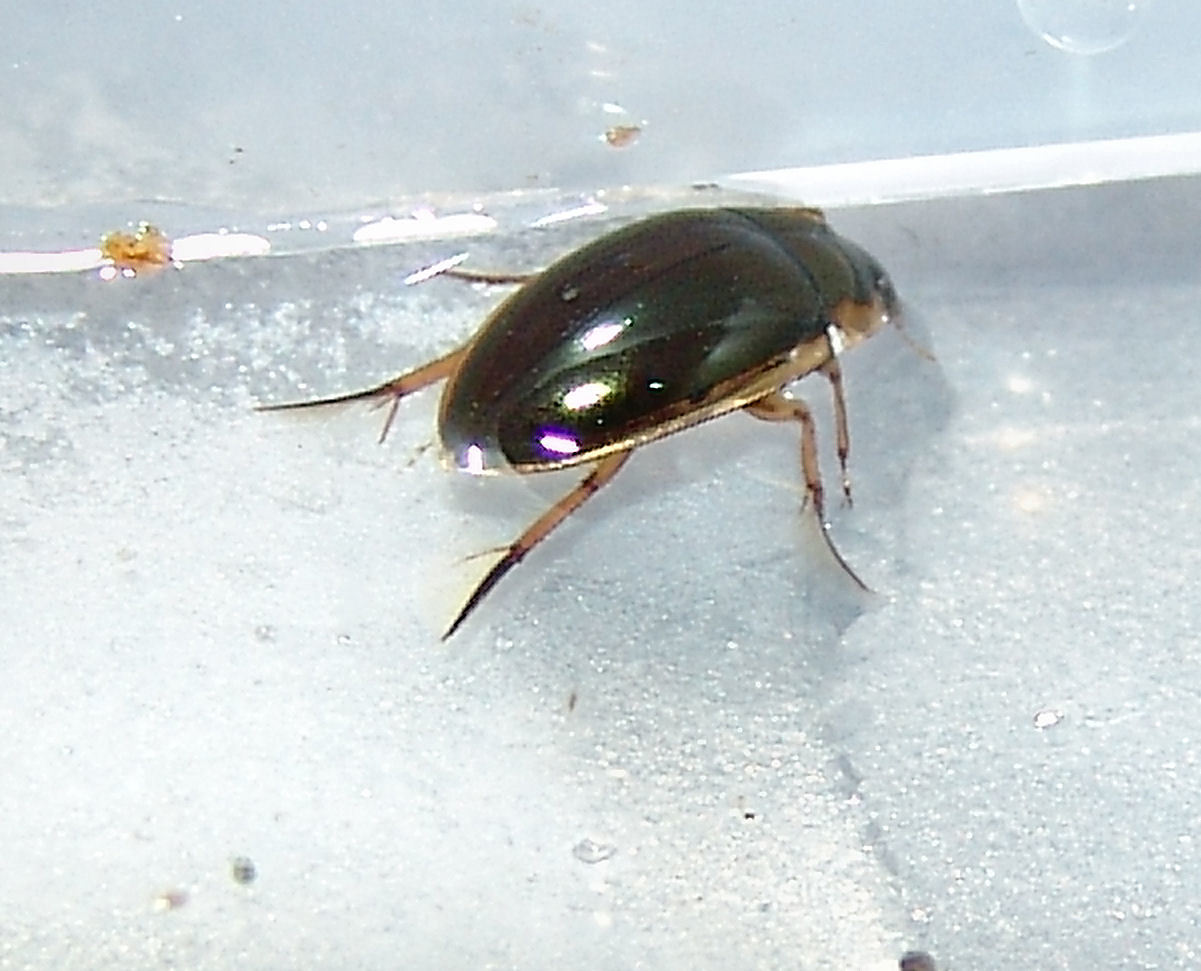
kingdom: Animalia
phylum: Arthropoda
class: Insecta
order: Coleoptera
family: Hydrophilidae
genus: Tropisternus
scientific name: Tropisternus lateralis
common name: Lateral-banded water scavenger beetle
